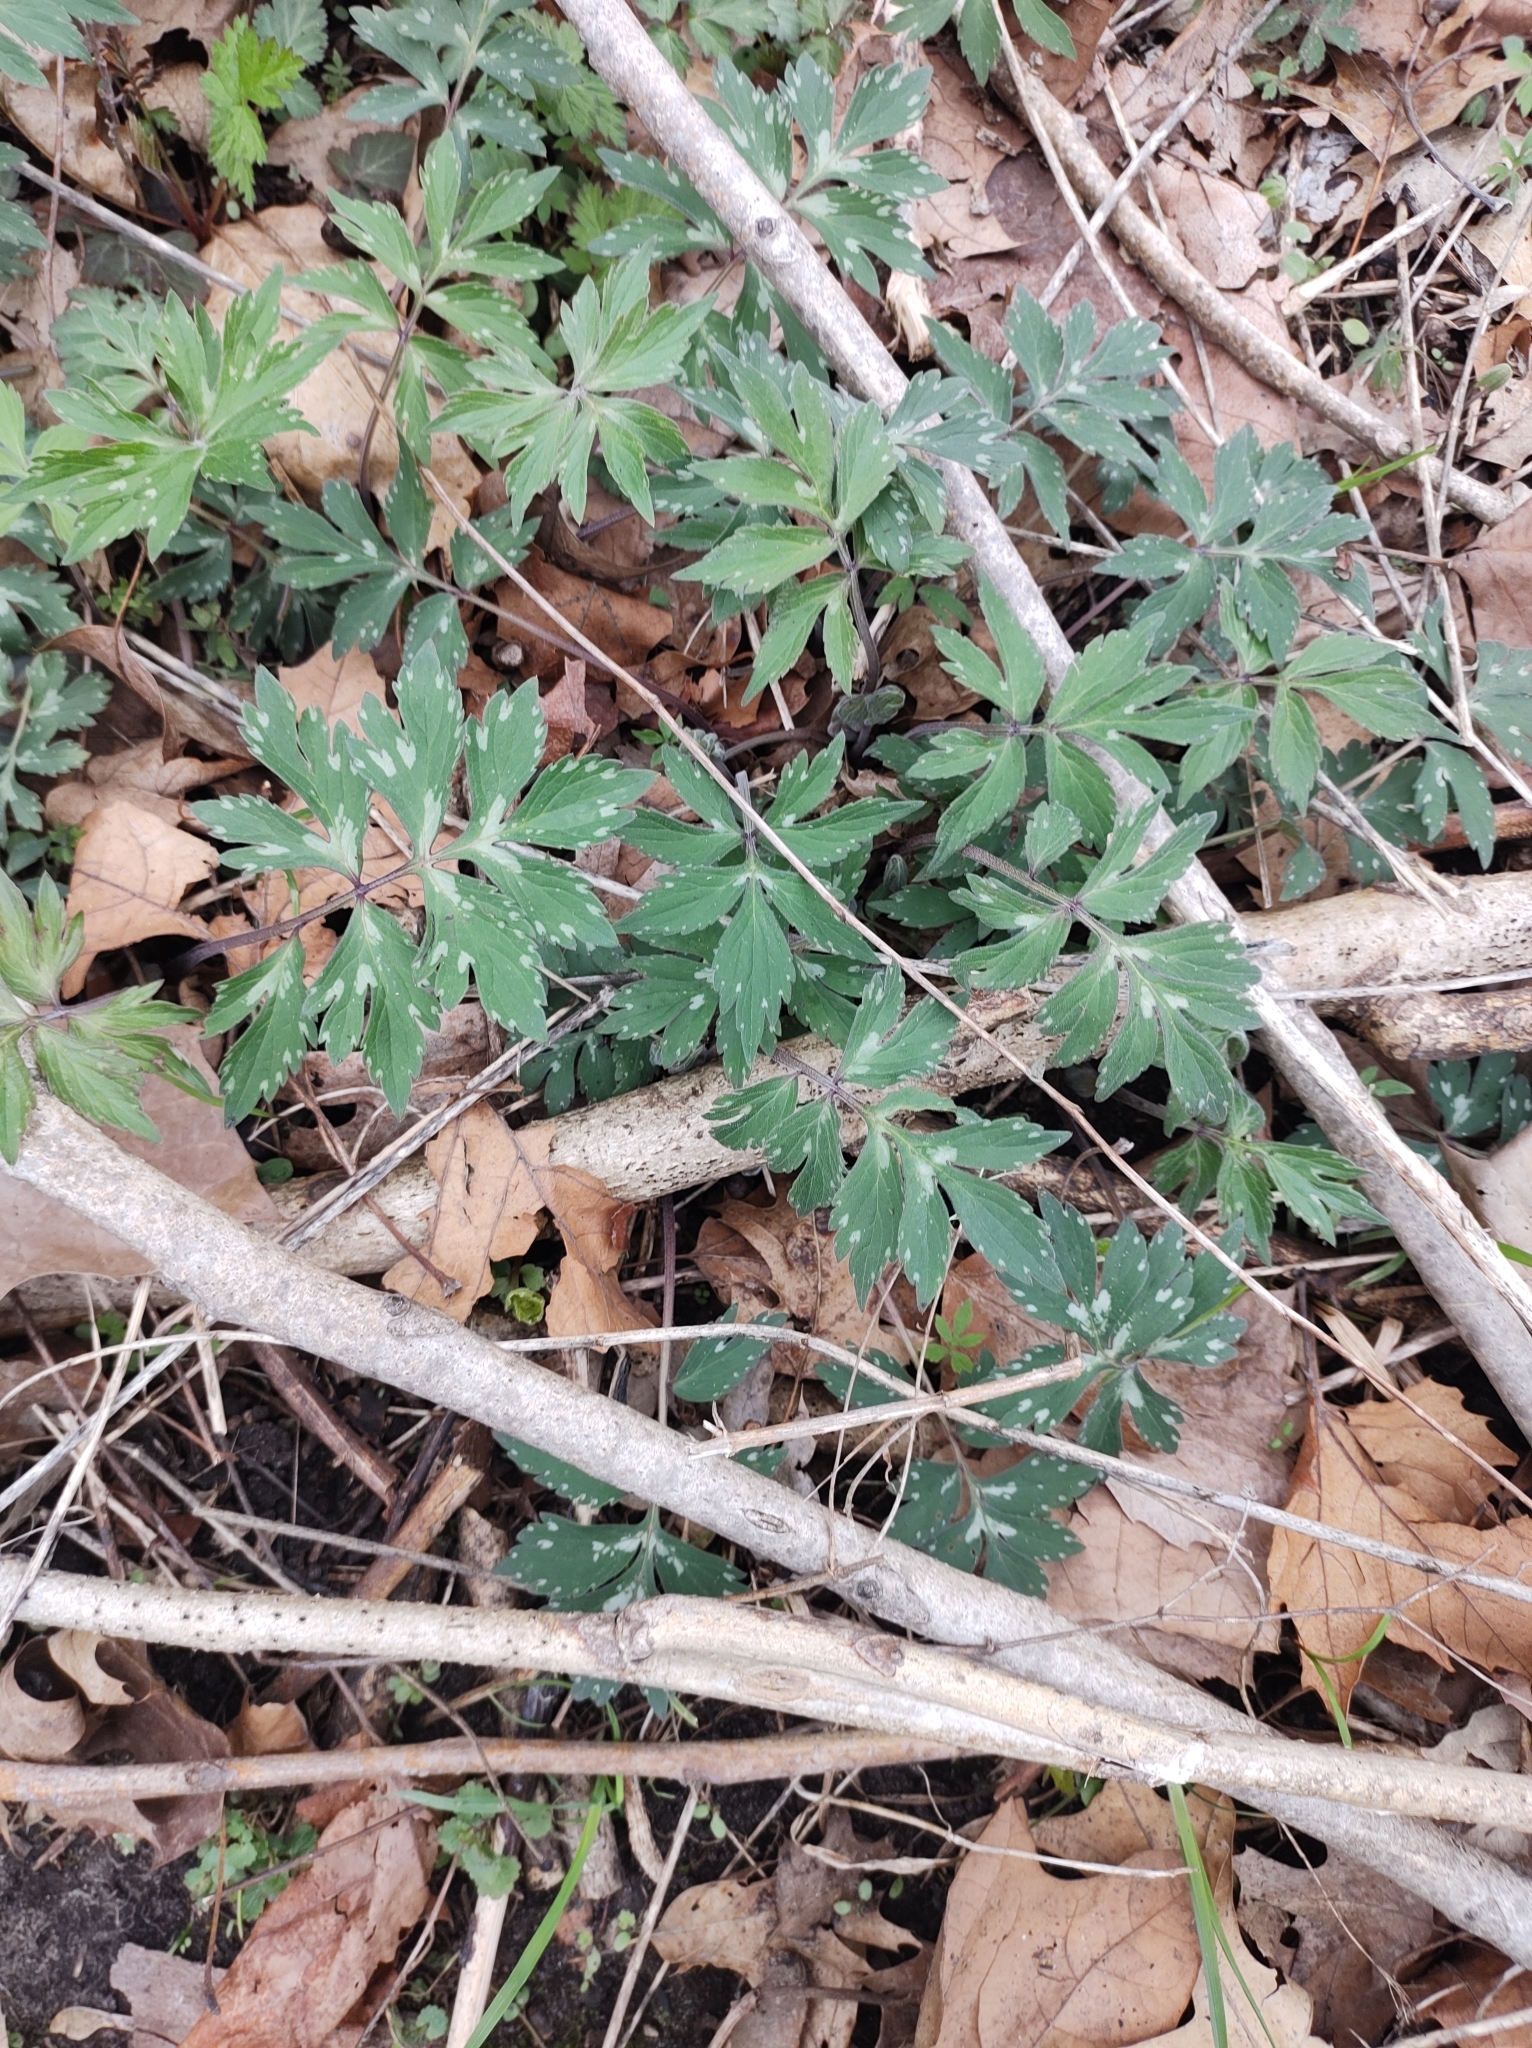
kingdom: Plantae
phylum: Tracheophyta
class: Magnoliopsida
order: Boraginales
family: Hydrophyllaceae
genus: Hydrophyllum
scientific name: Hydrophyllum virginianum
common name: Virginia waterleaf
